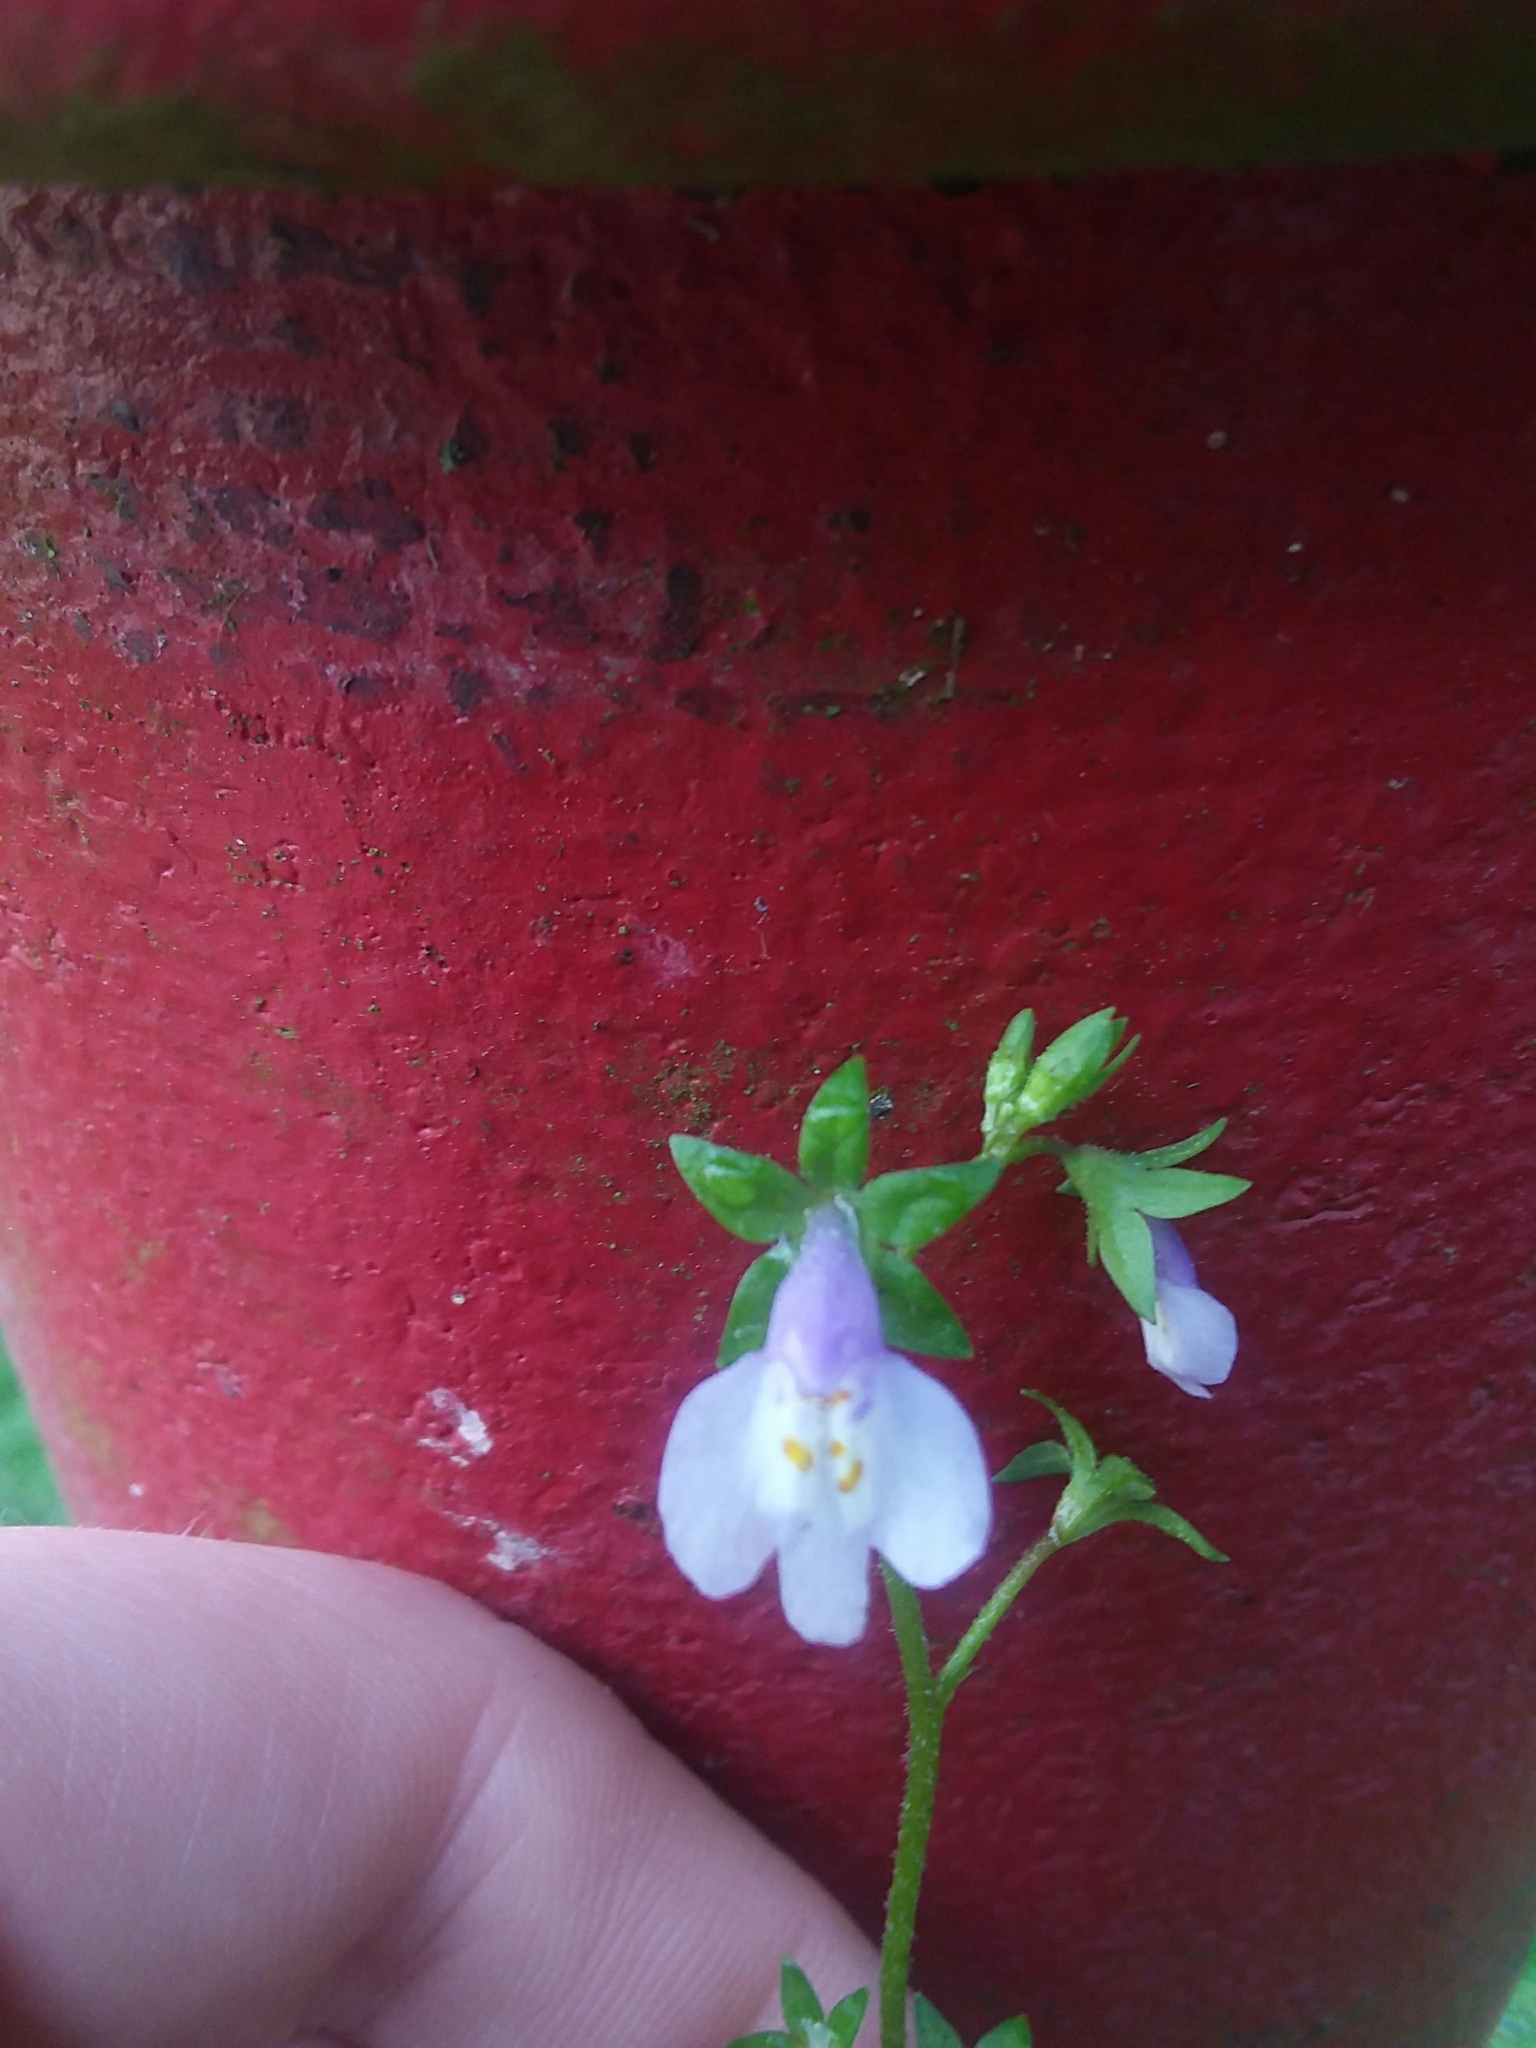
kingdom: Plantae
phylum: Tracheophyta
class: Magnoliopsida
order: Lamiales
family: Mazaceae
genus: Mazus
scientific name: Mazus pumilus
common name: Japanese mazus
